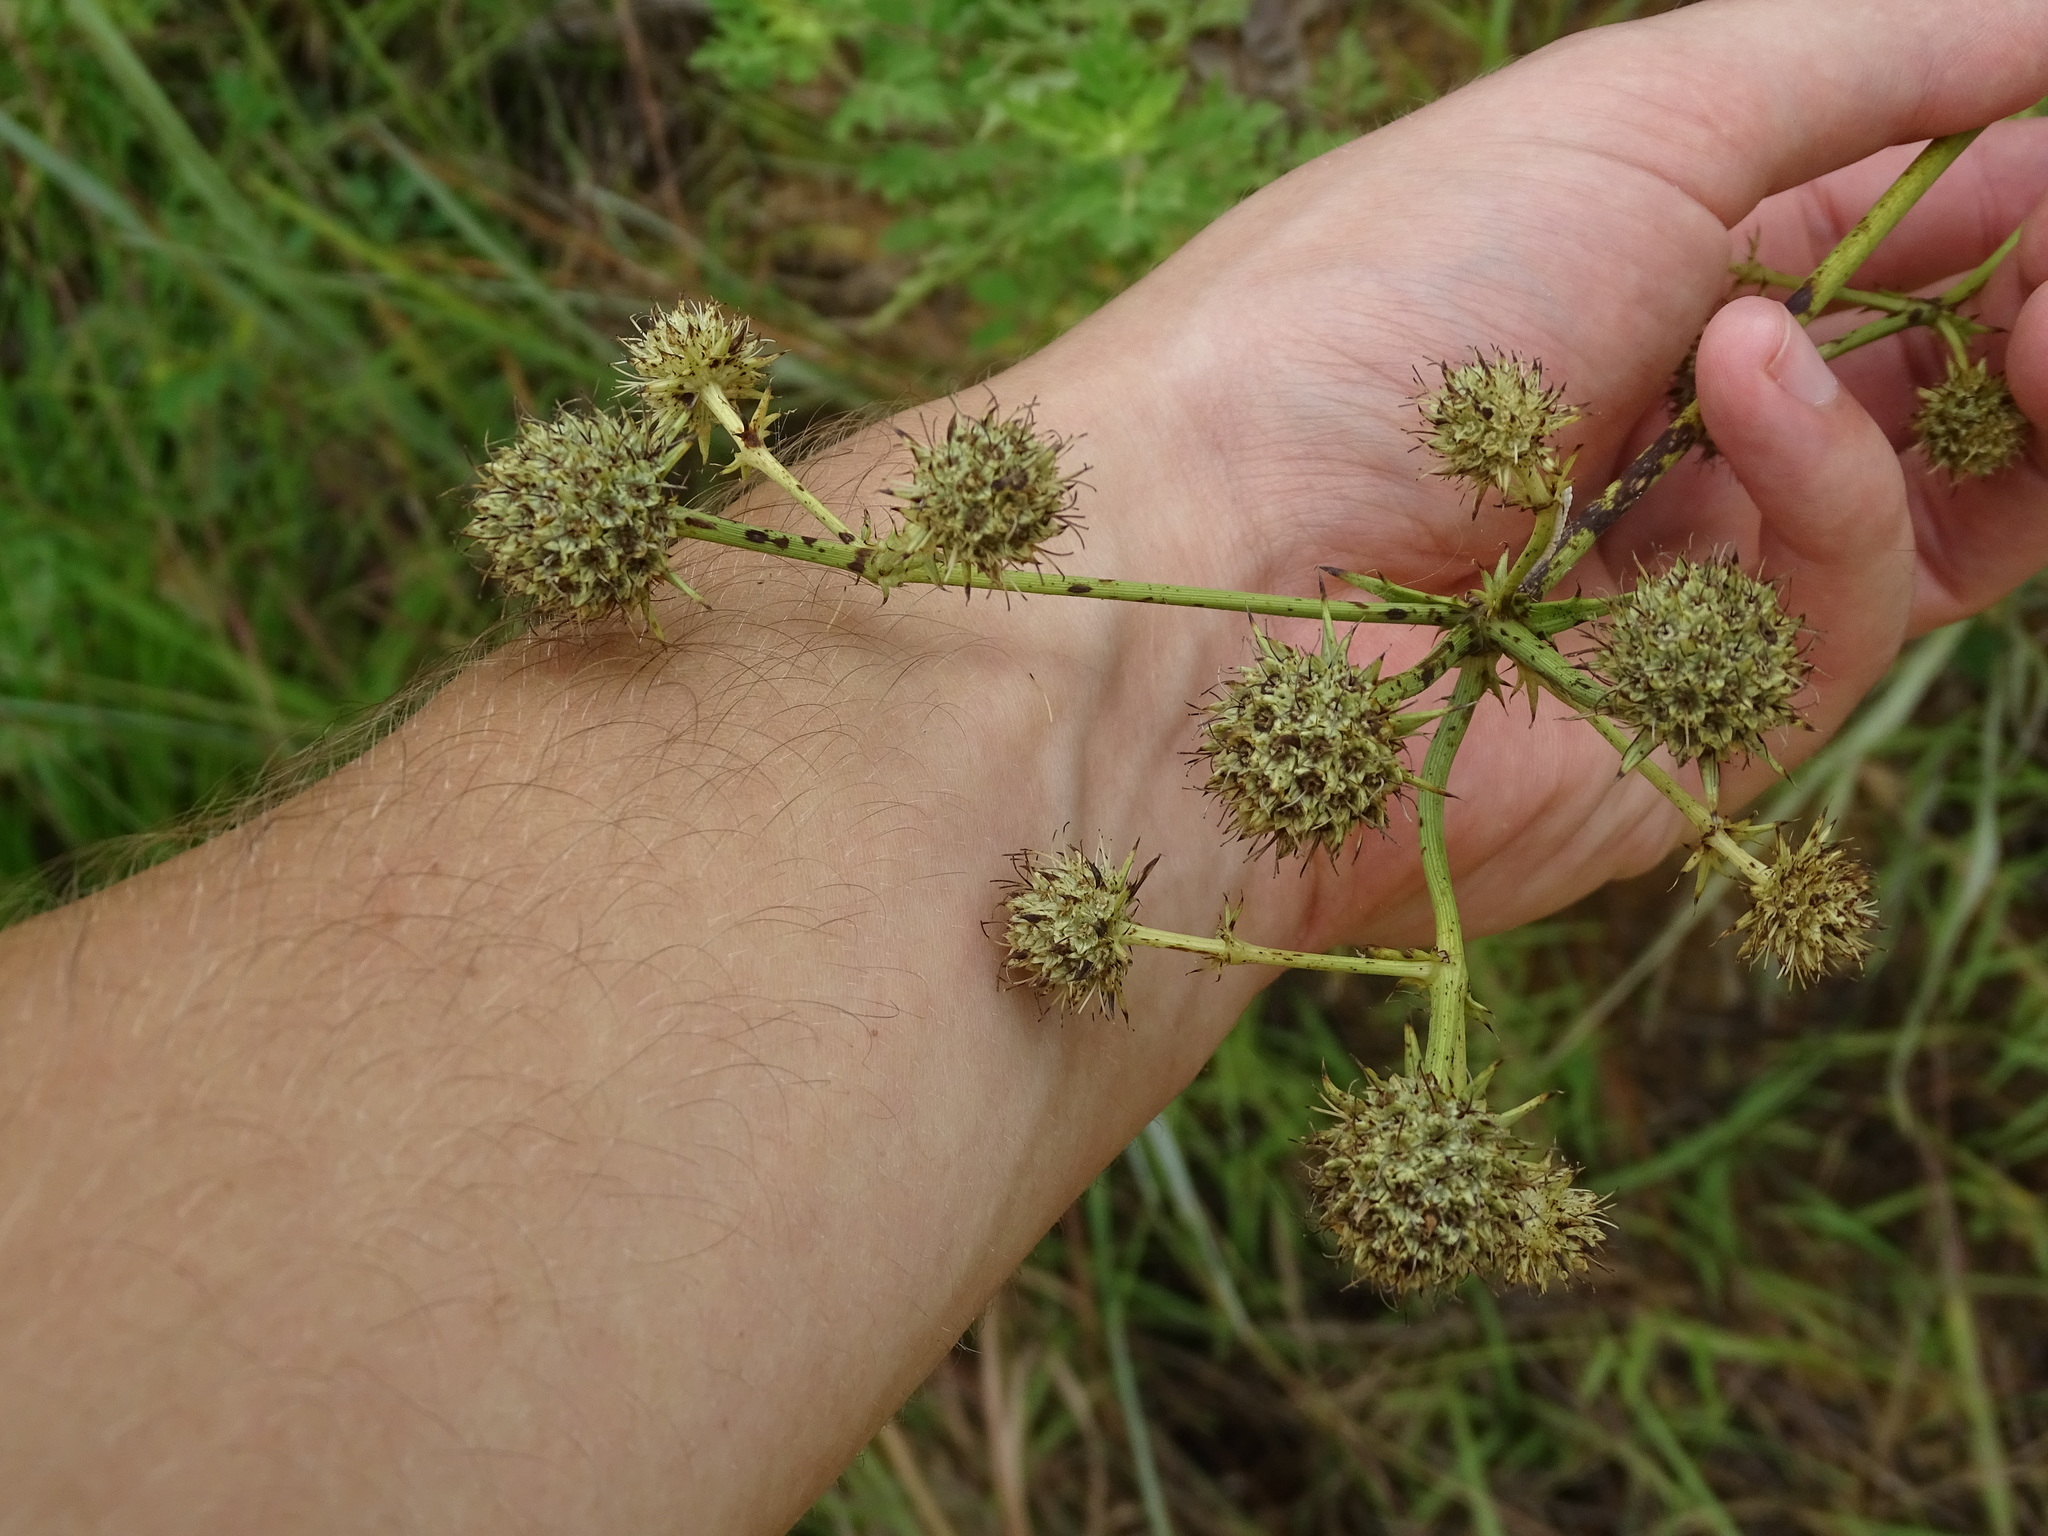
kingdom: Plantae
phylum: Tracheophyta
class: Magnoliopsida
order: Apiales
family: Apiaceae
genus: Eryngium
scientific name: Eryngium yuccifolium
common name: Button eryngo
